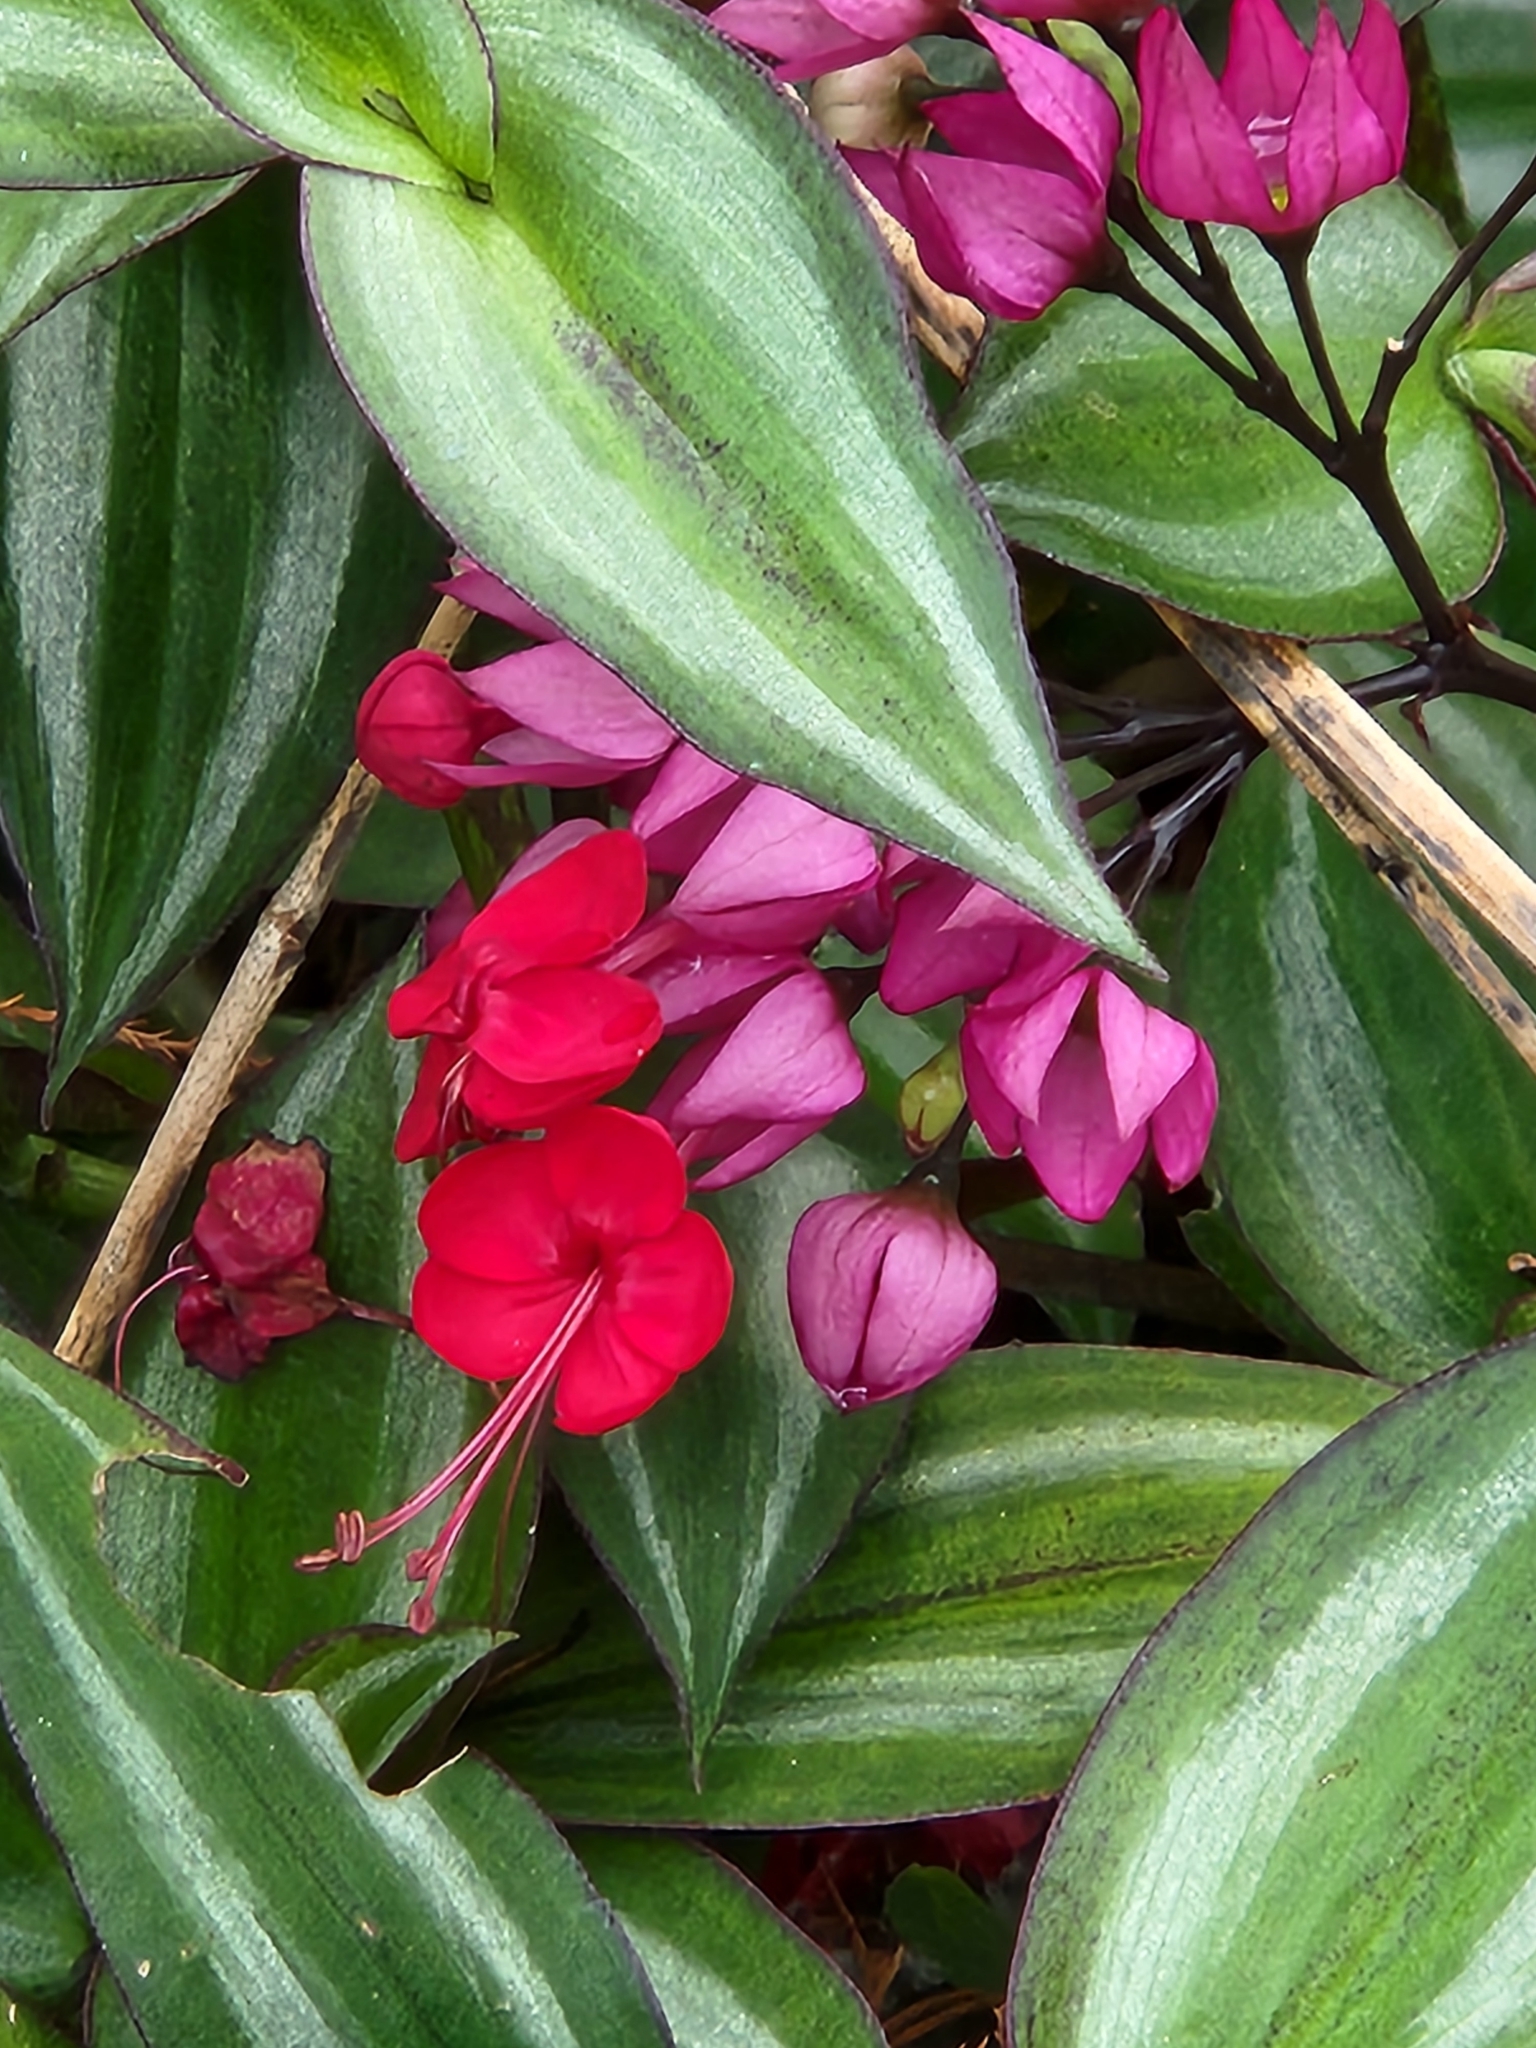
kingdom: Plantae
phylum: Tracheophyta
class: Magnoliopsida
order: Lamiales
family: Lamiaceae
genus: Clerodendrum
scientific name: Clerodendrum speciosum
